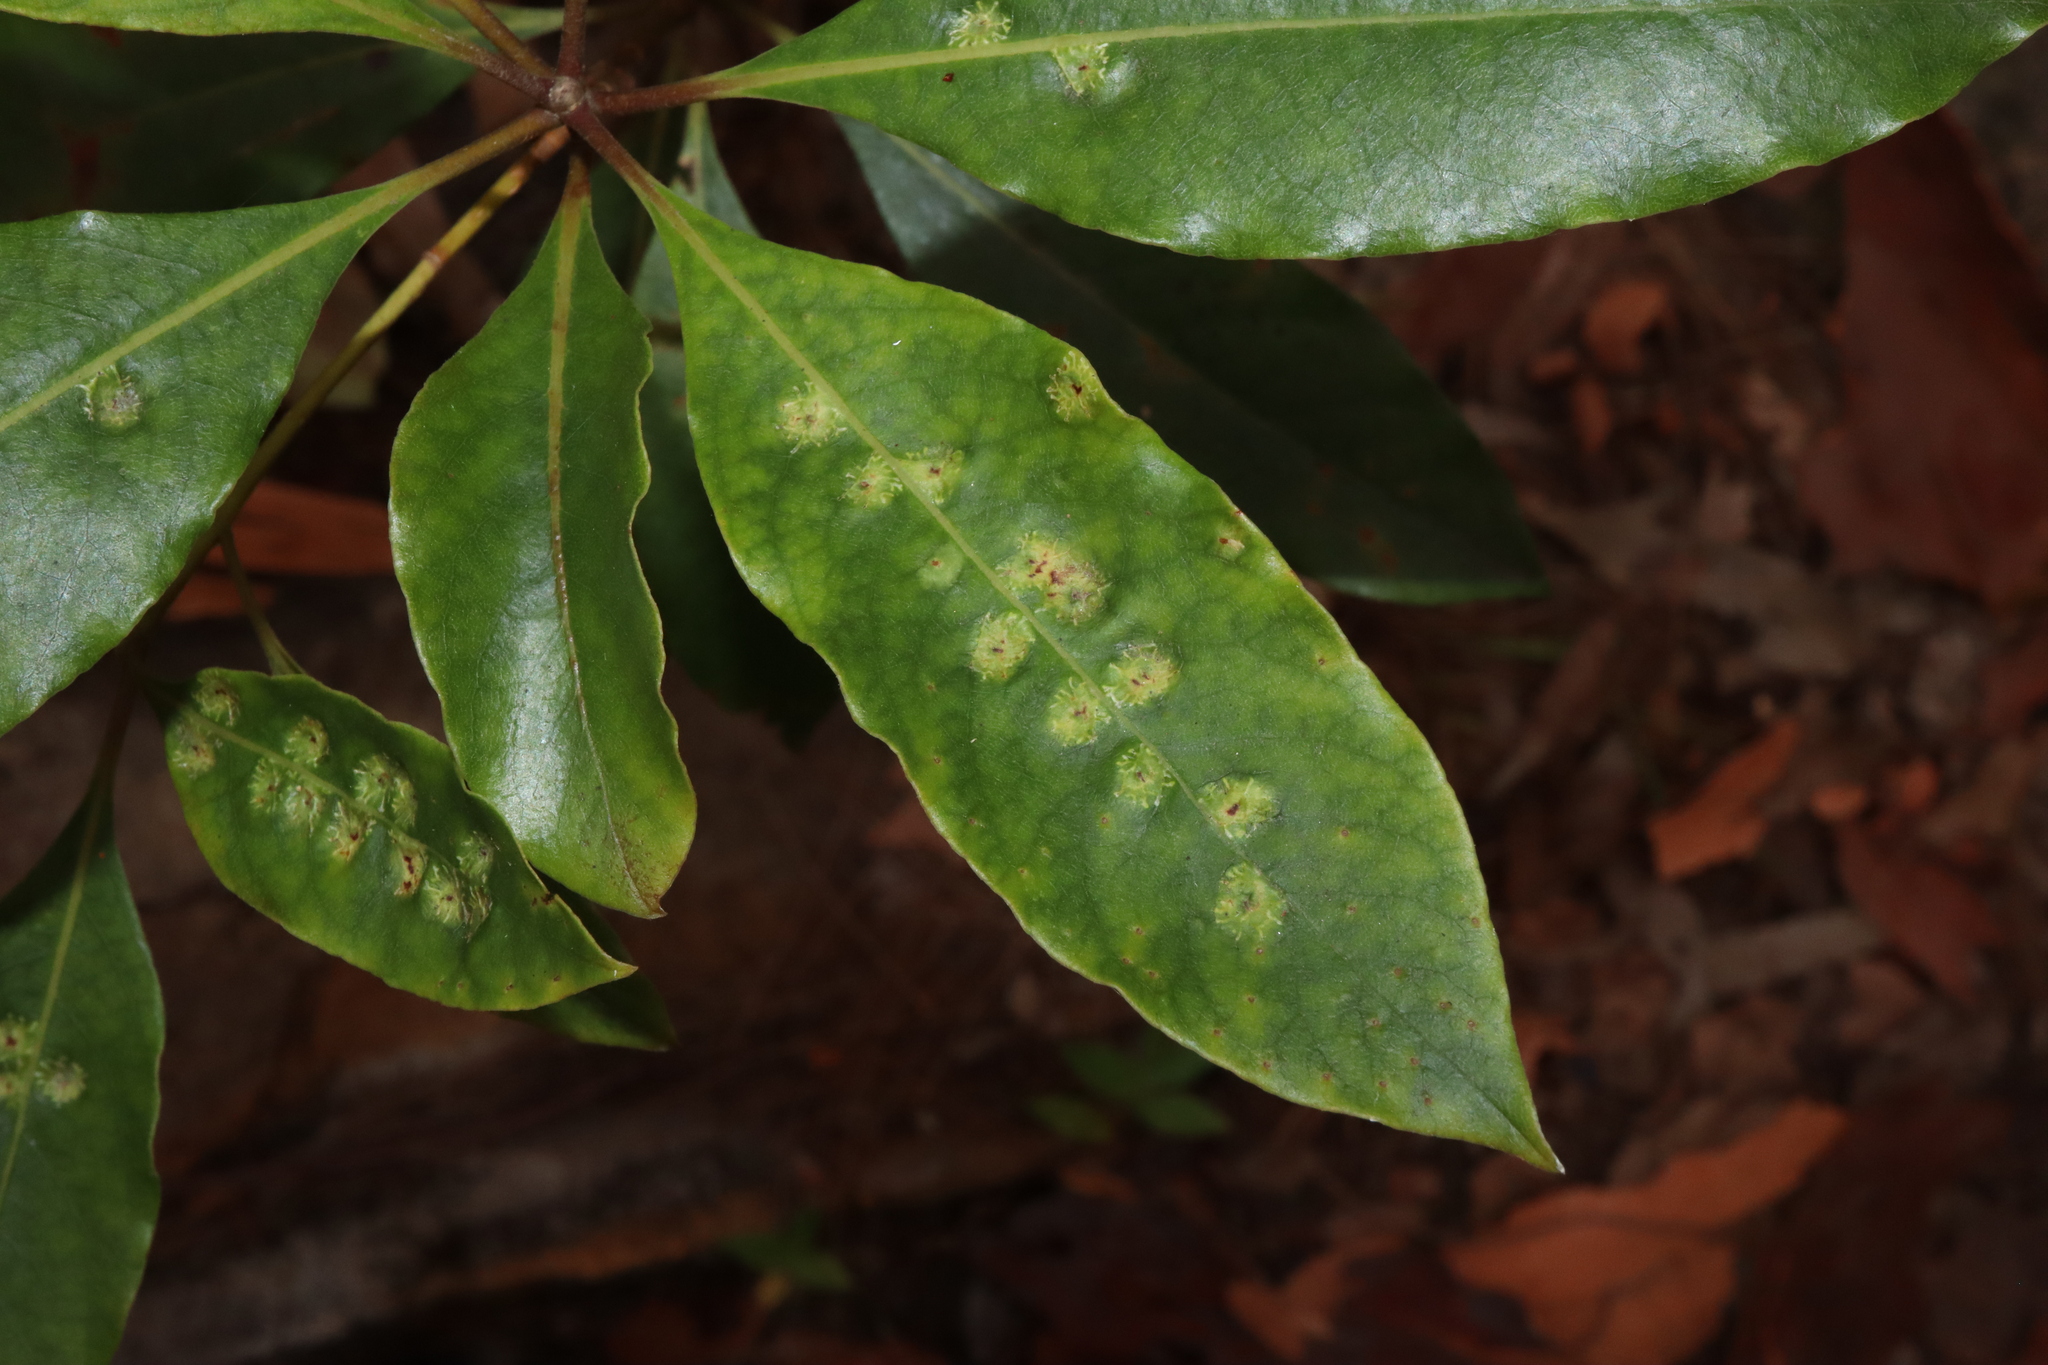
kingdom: Animalia
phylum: Arthropoda
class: Insecta
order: Diptera
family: Agromyzidae
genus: Phytoliriomyza
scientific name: Phytoliriomyza pittosporophylli
